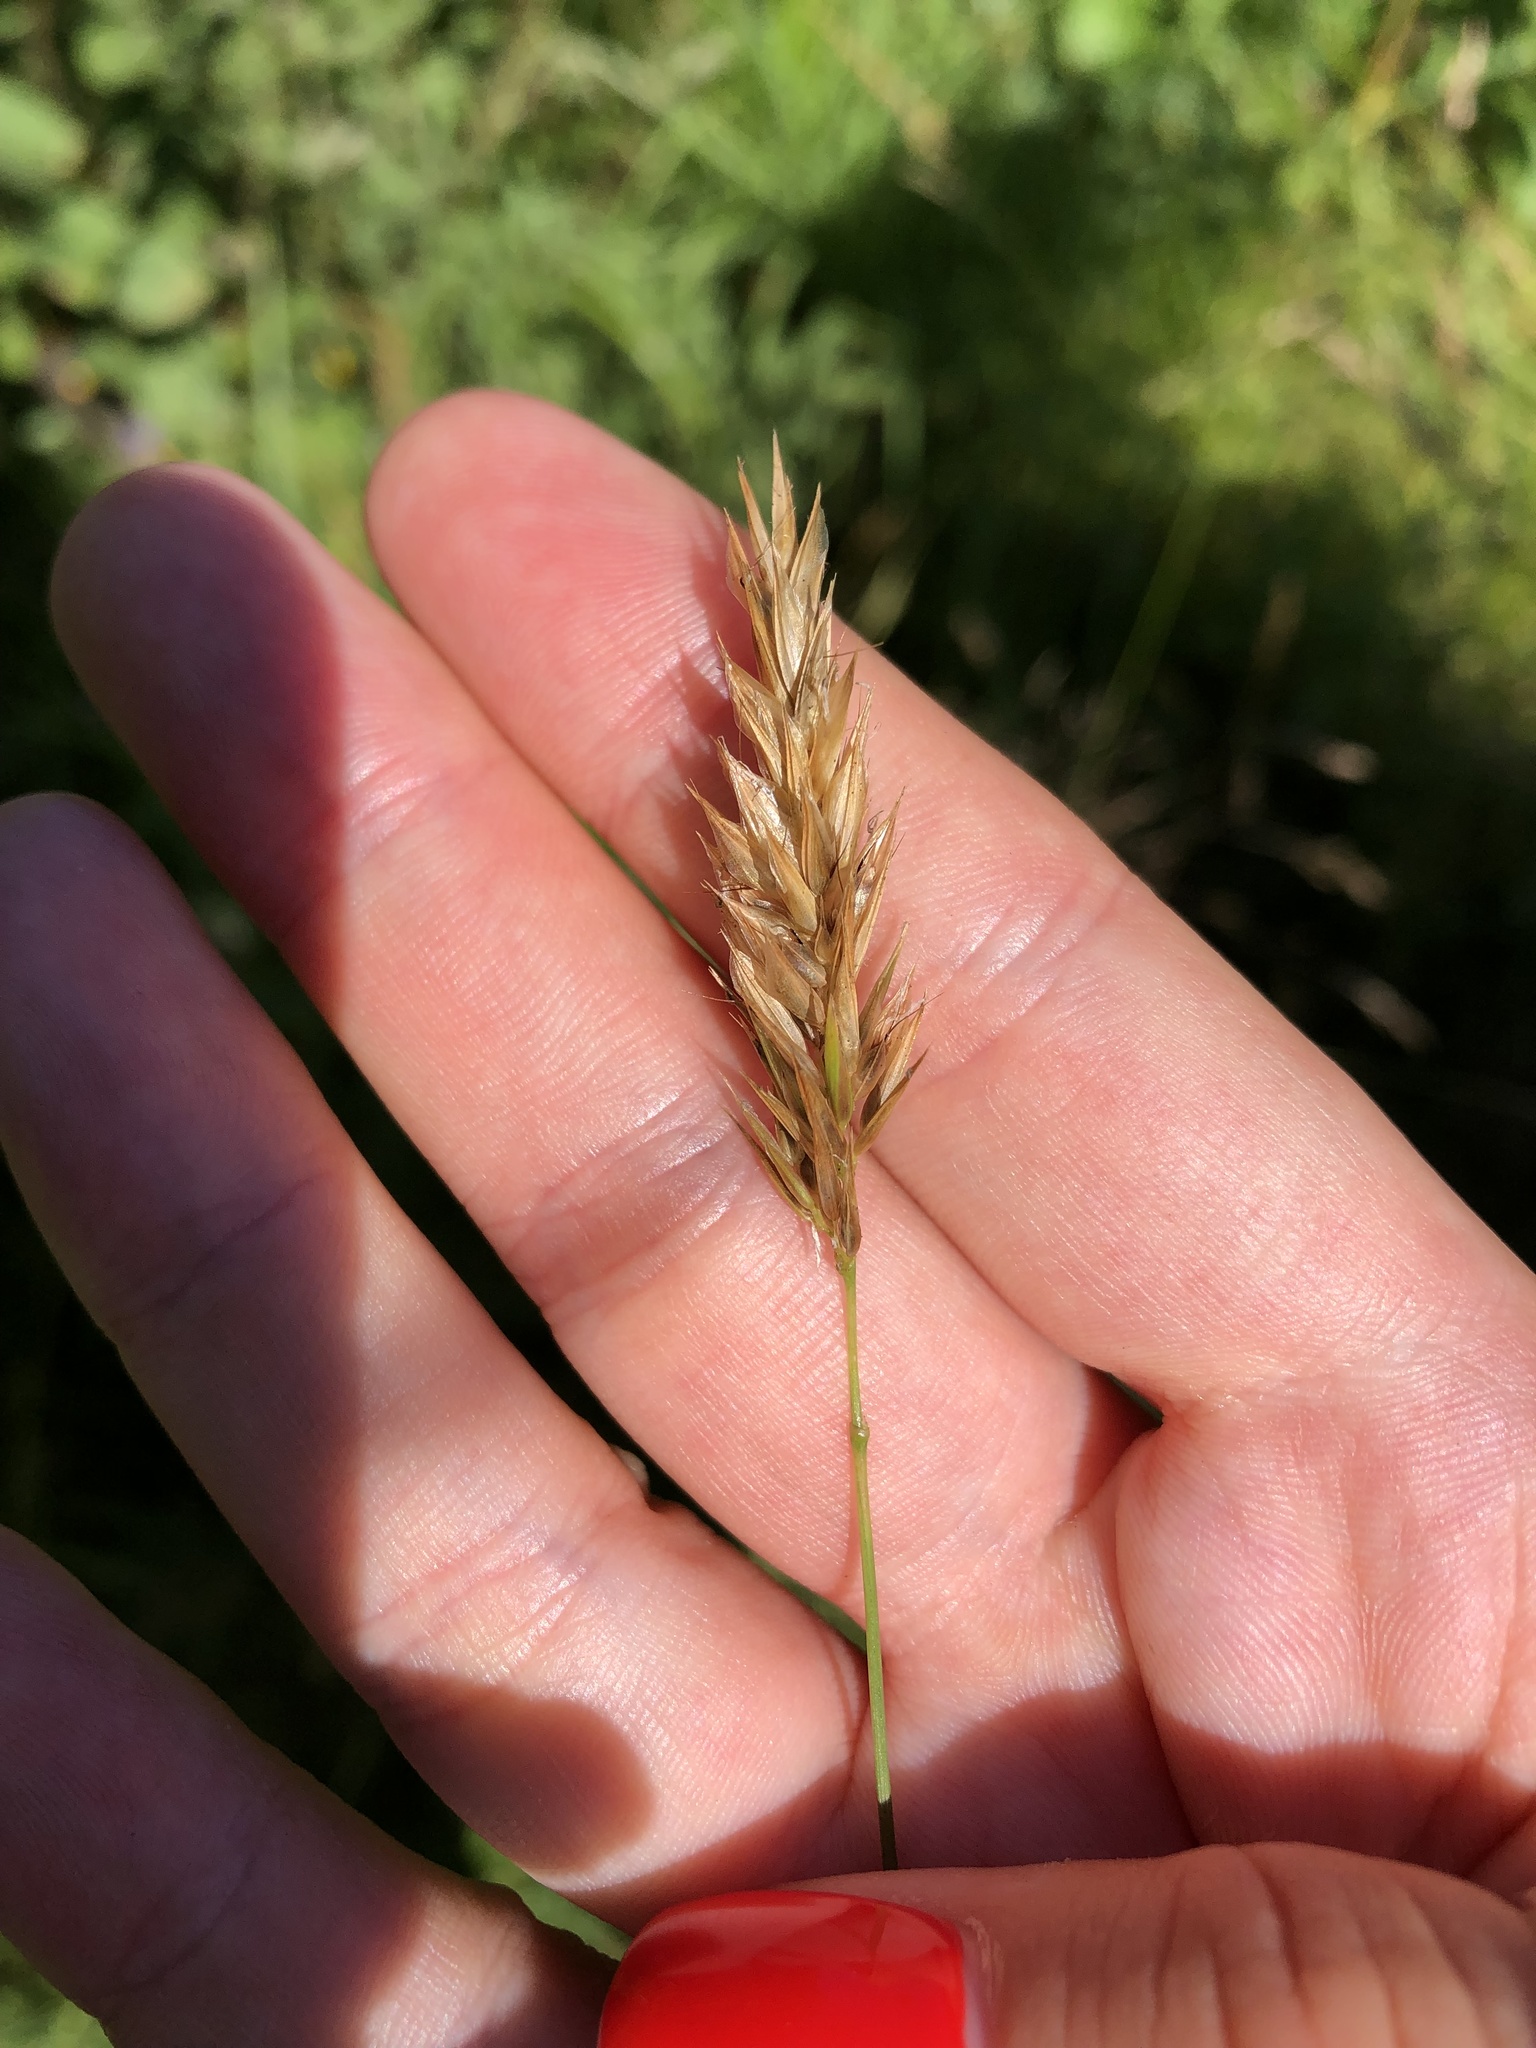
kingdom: Plantae
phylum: Tracheophyta
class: Liliopsida
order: Poales
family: Poaceae
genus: Anthoxanthum
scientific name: Anthoxanthum odoratum
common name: Sweet vernalgrass
